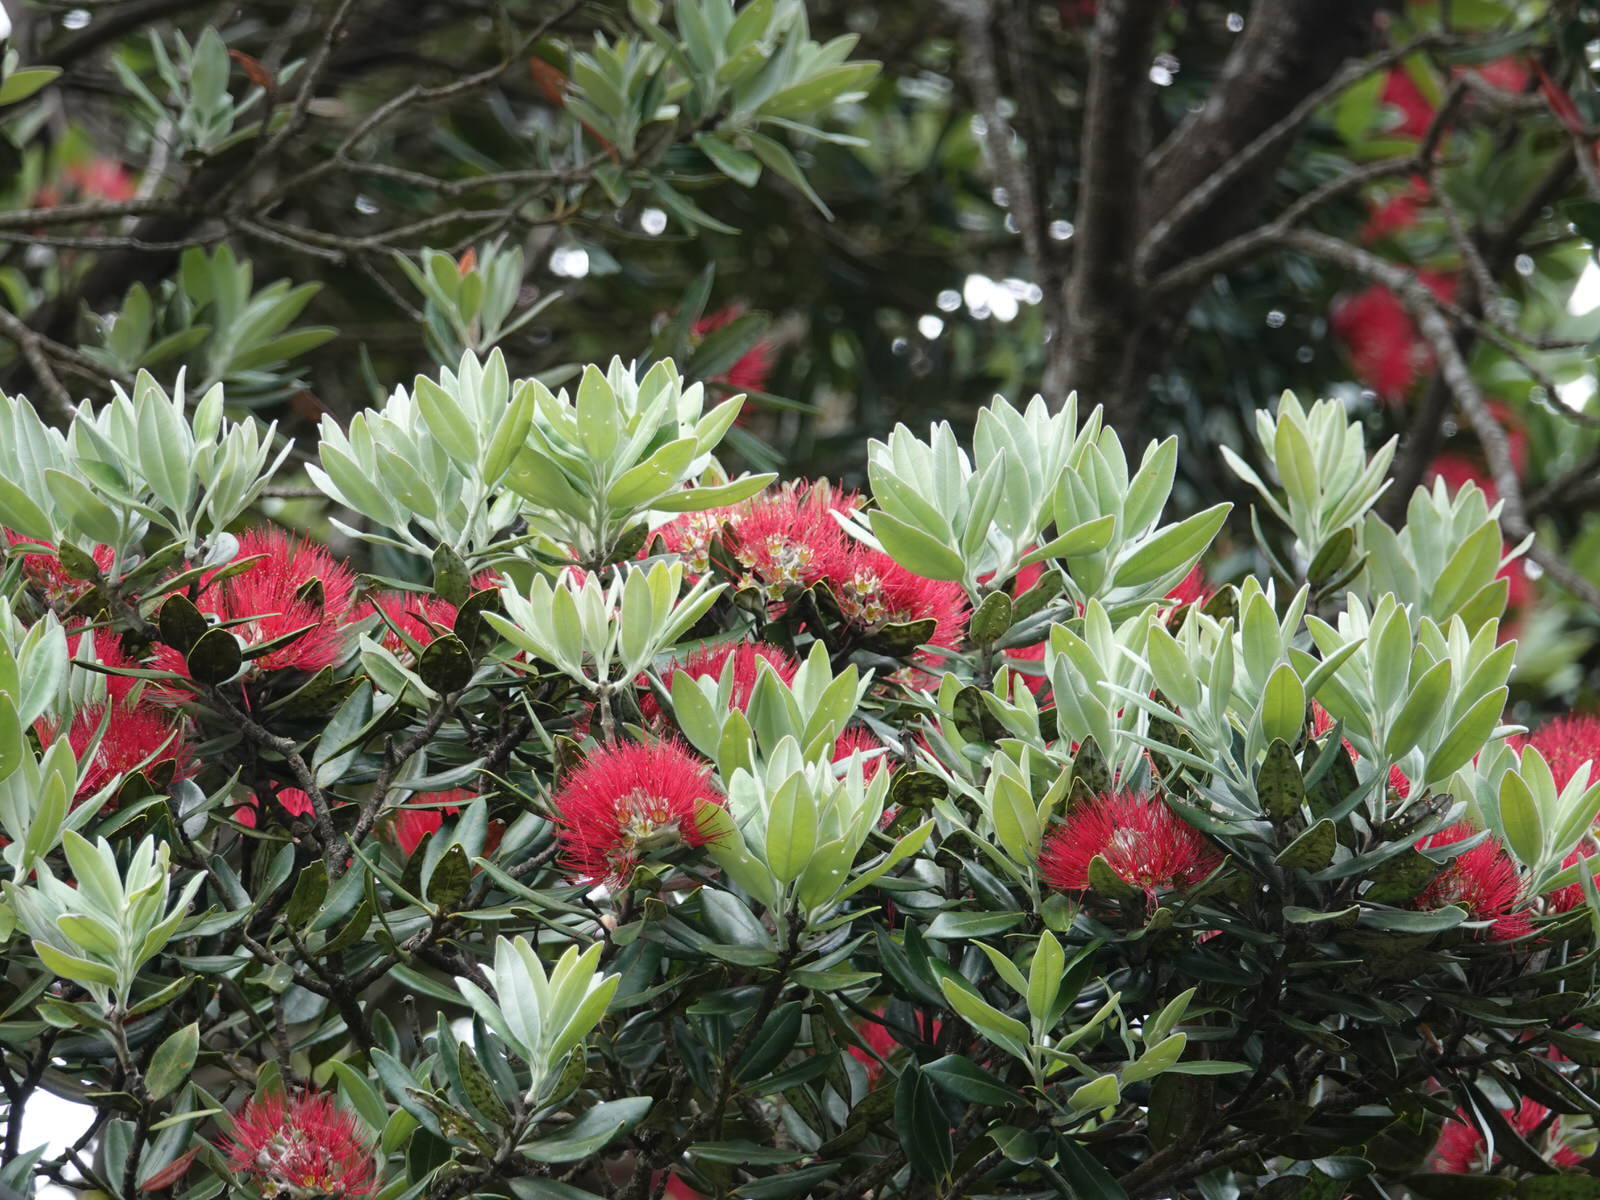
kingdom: Plantae
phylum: Tracheophyta
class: Magnoliopsida
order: Myrtales
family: Myrtaceae
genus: Metrosideros
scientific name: Metrosideros excelsa
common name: New zealand christmastree
